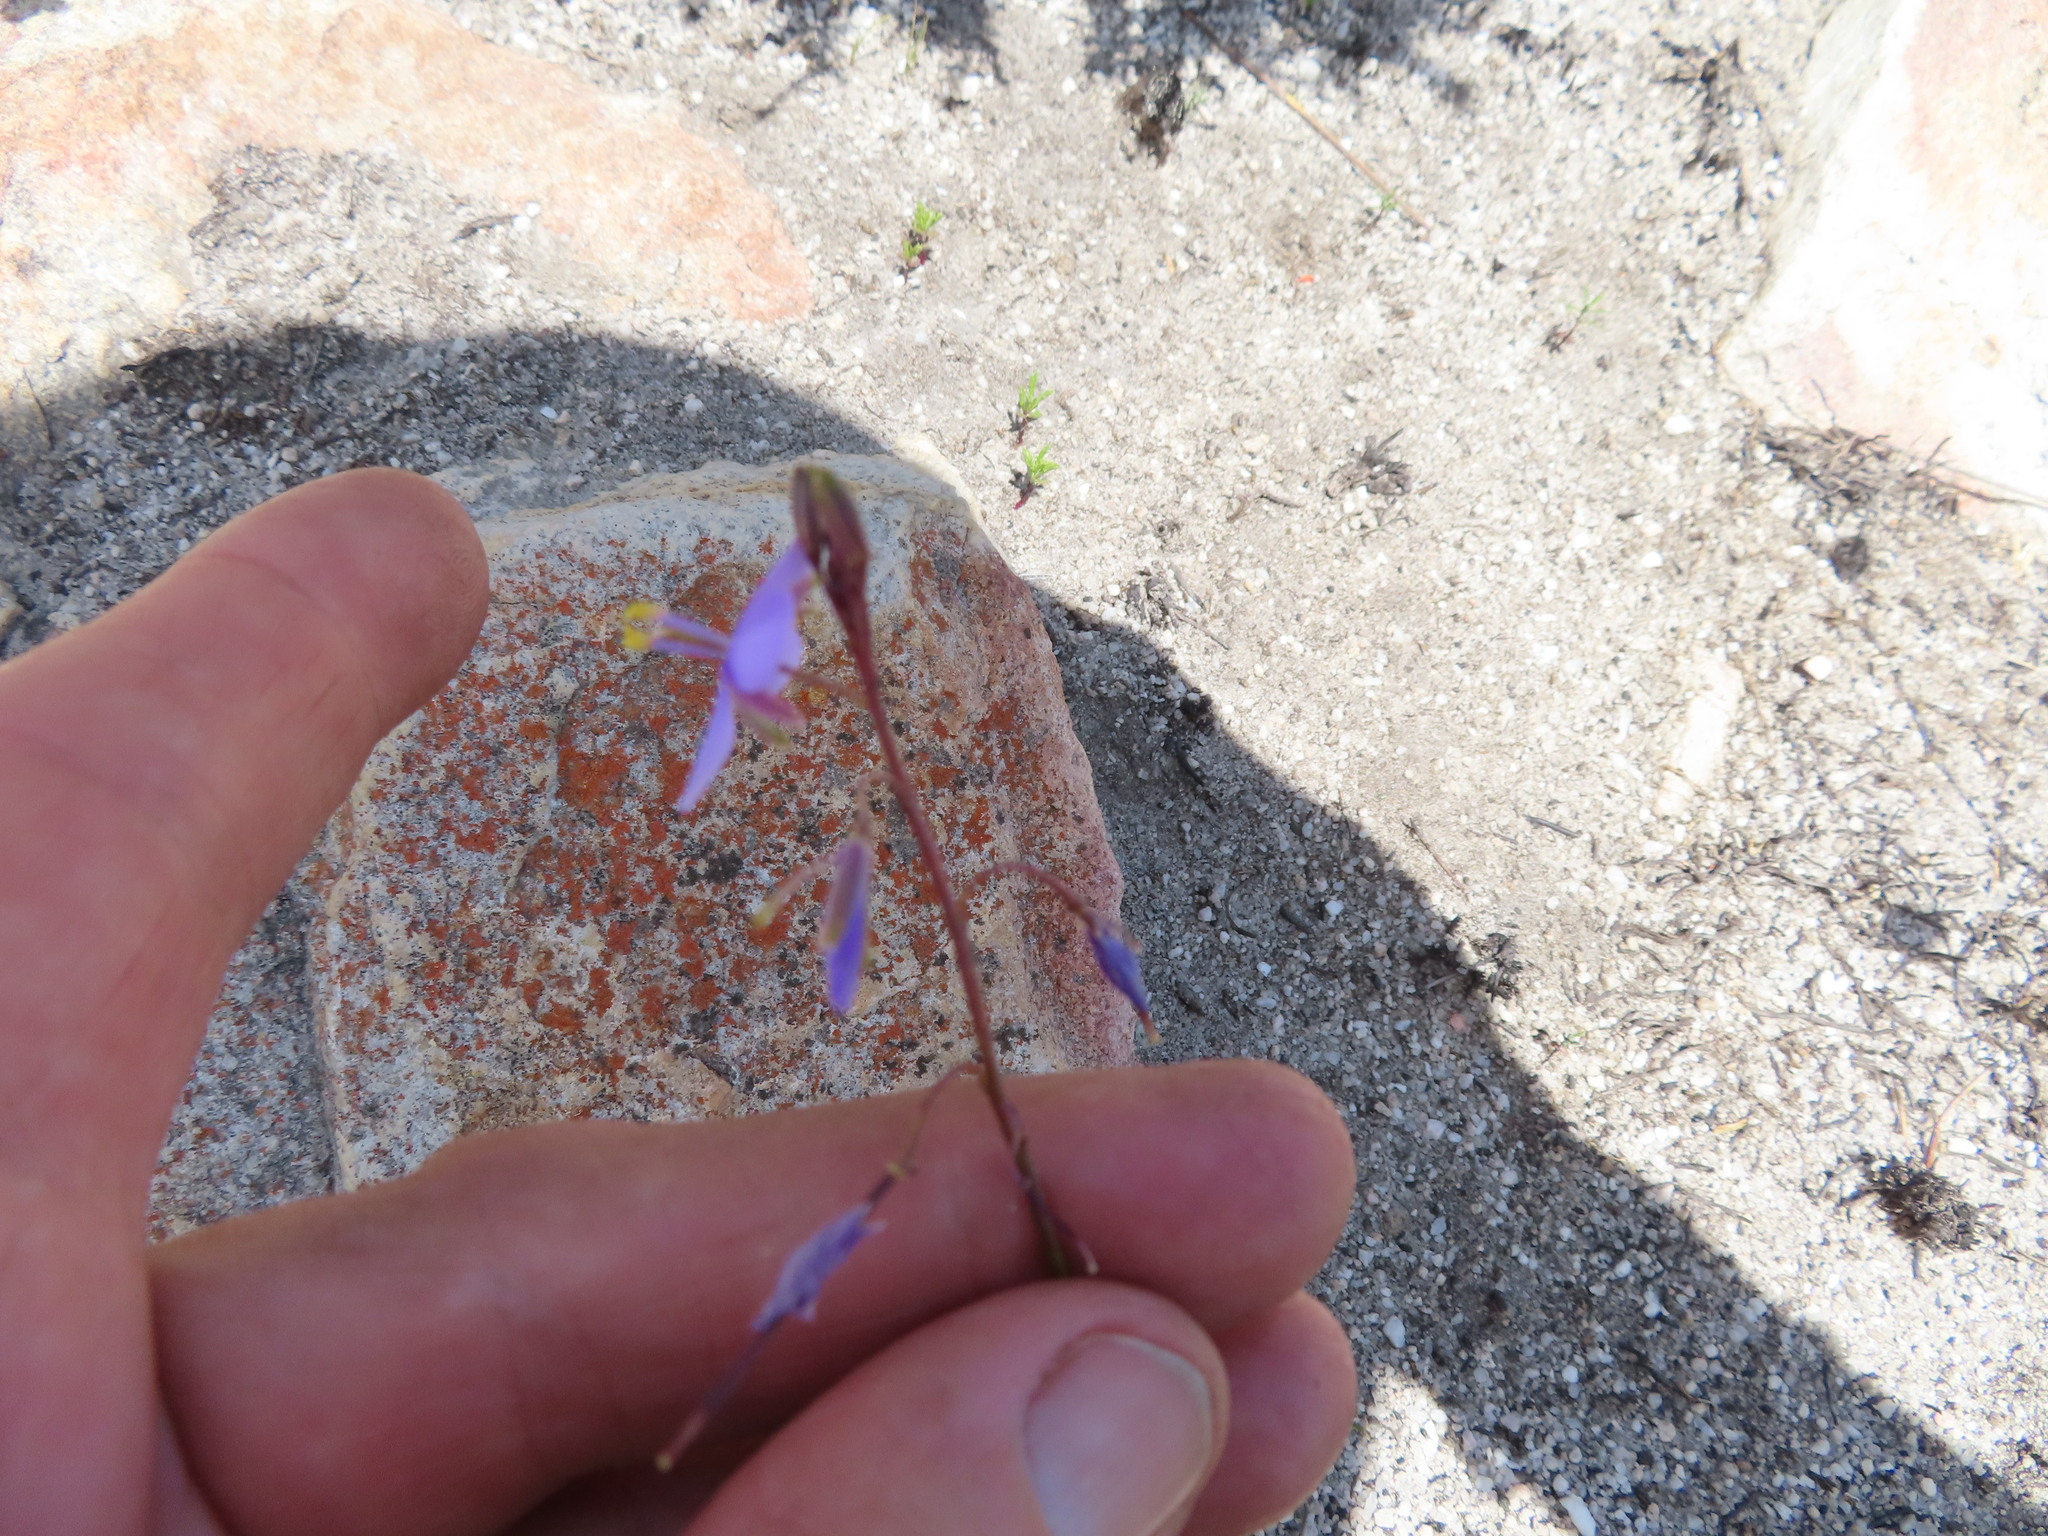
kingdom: Plantae
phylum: Tracheophyta
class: Magnoliopsida
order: Brassicales
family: Brassicaceae
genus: Heliophila
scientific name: Heliophila subulata
